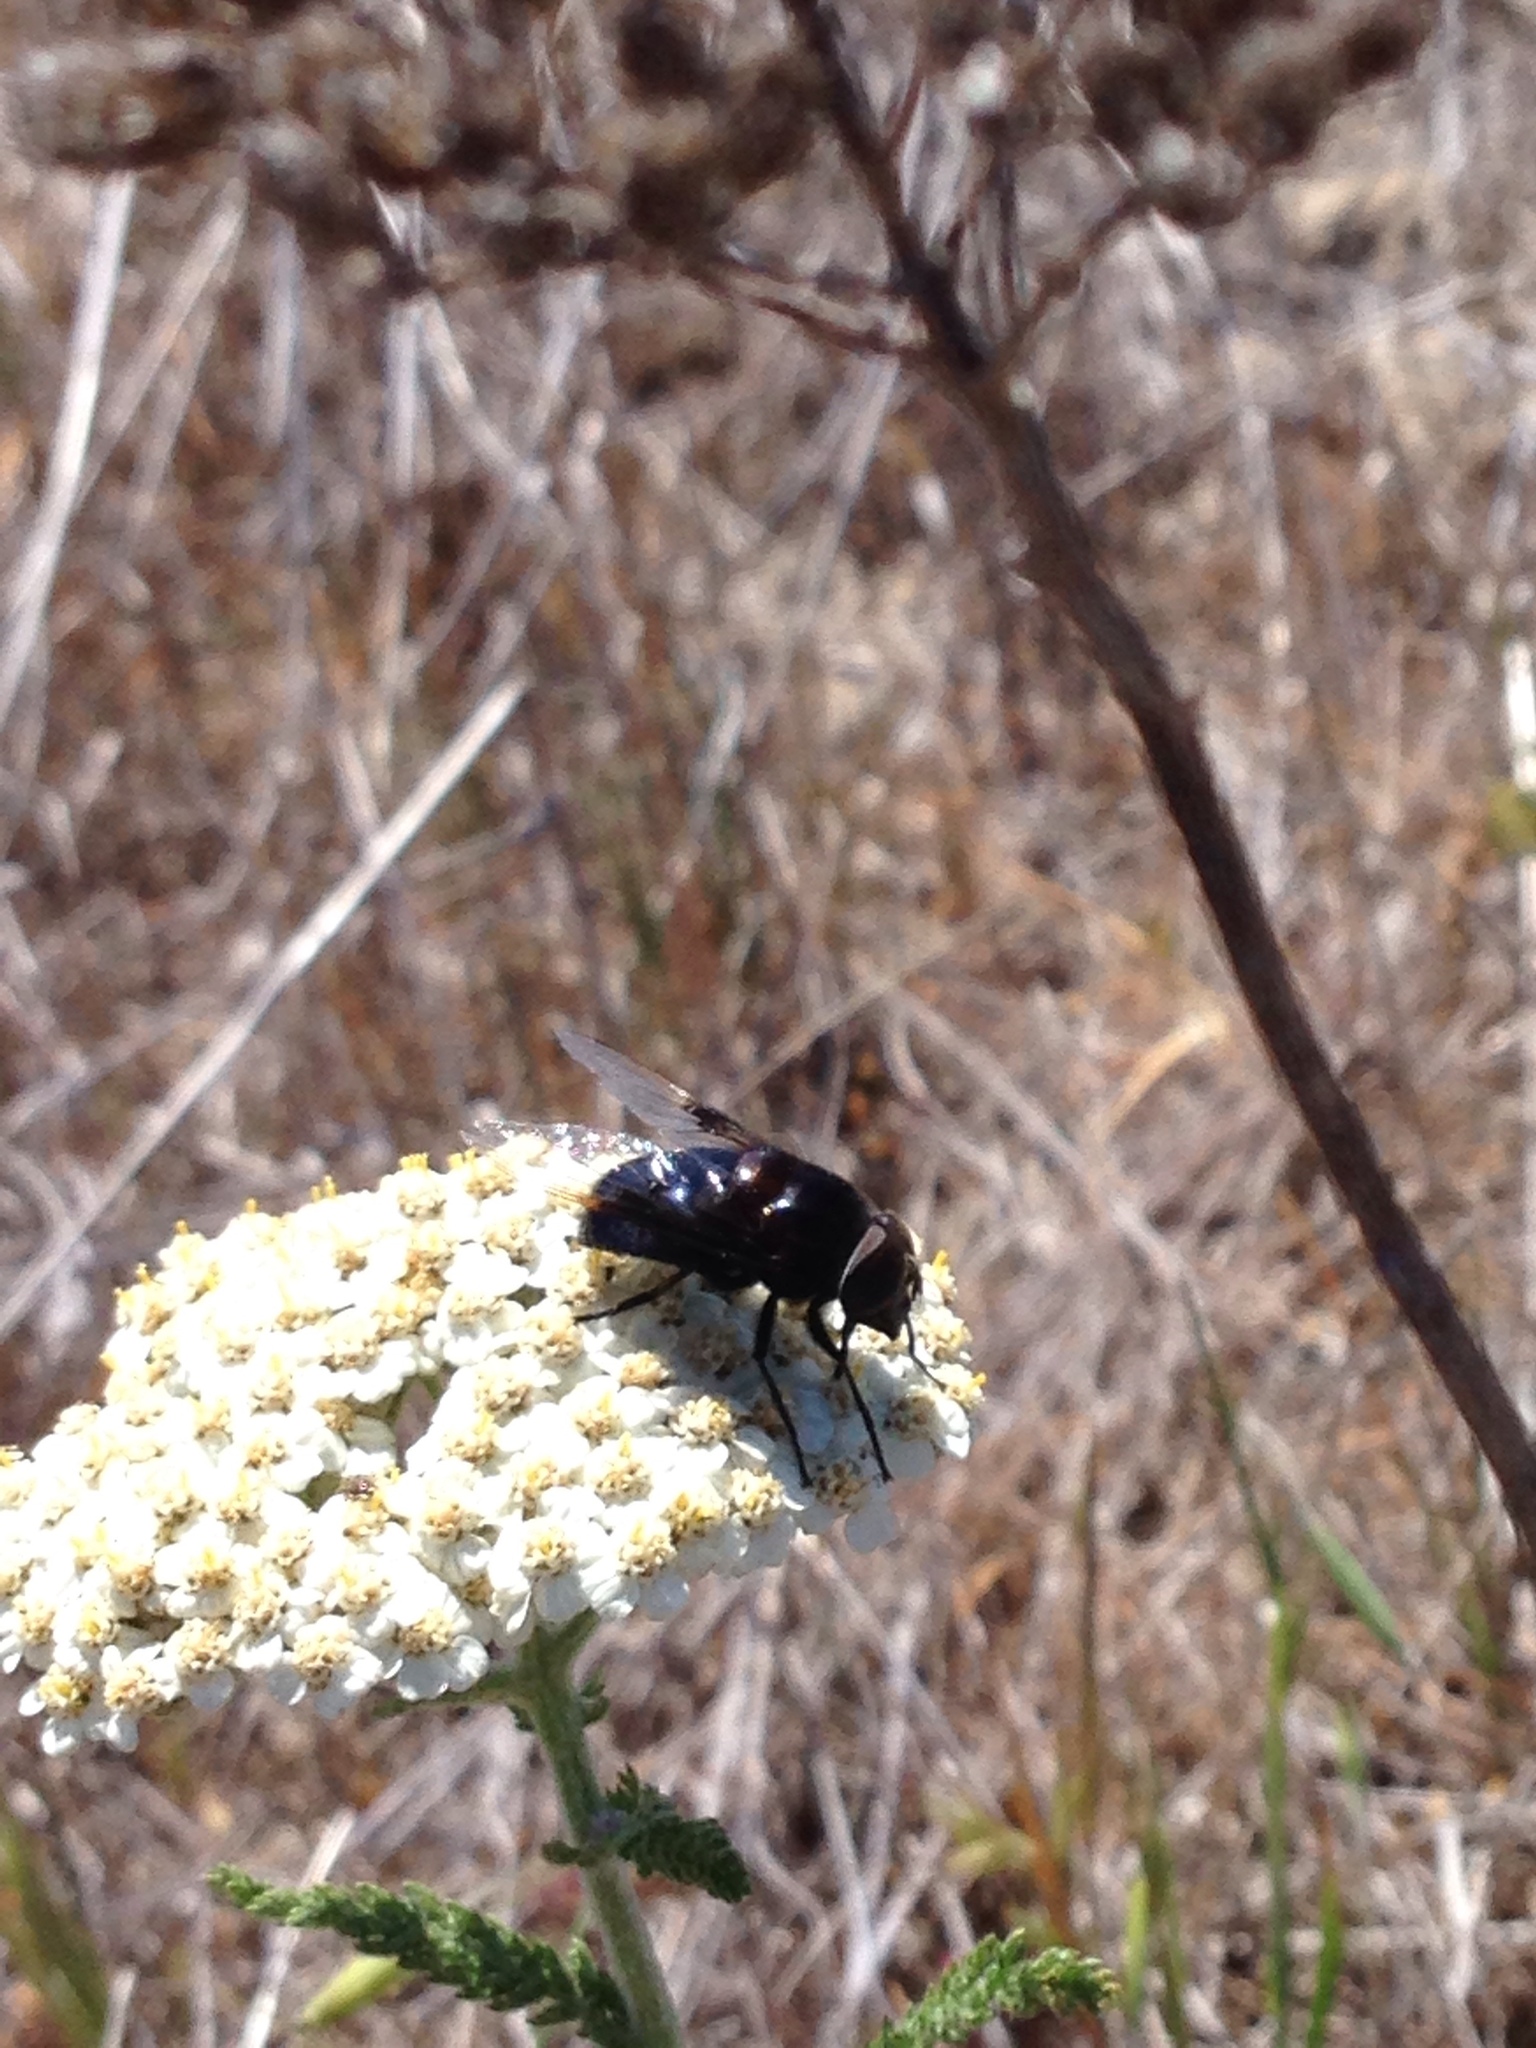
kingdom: Animalia
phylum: Arthropoda
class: Insecta
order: Diptera
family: Syrphidae
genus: Copestylum
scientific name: Copestylum mexicanum
